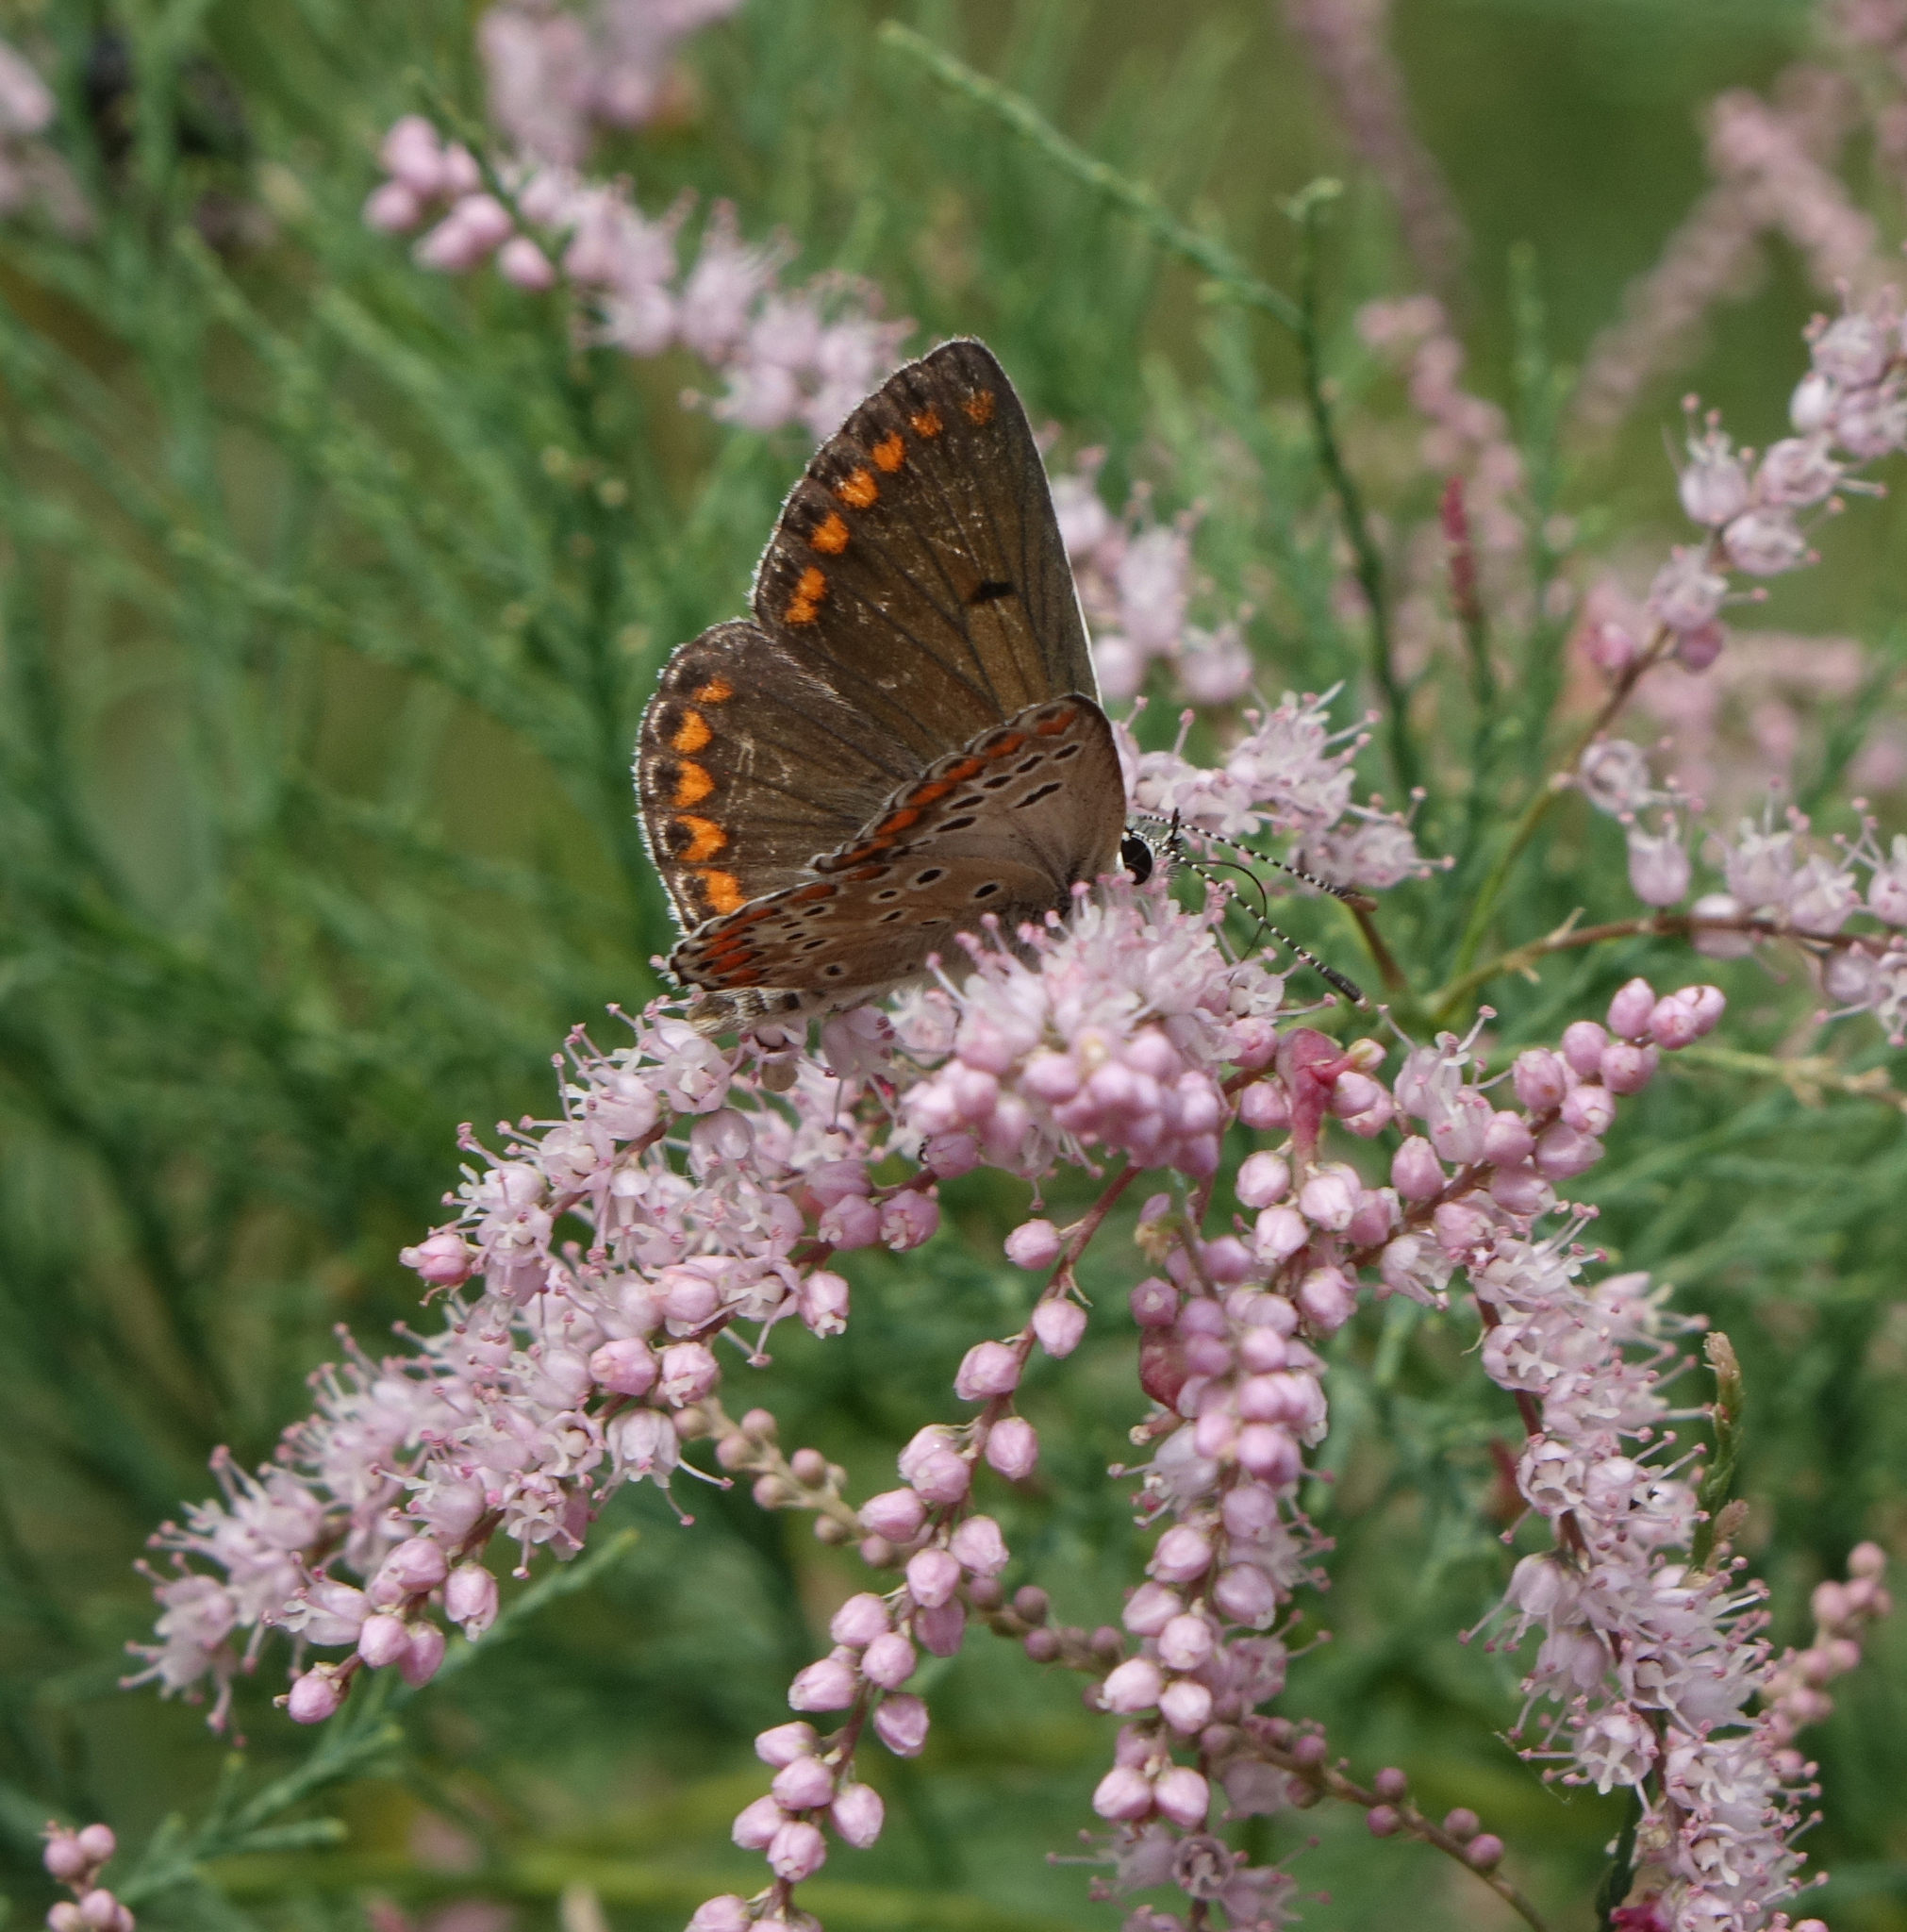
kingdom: Animalia
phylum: Arthropoda
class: Insecta
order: Lepidoptera
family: Lycaenidae
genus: Aricia
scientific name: Aricia agestis
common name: Brown argus
